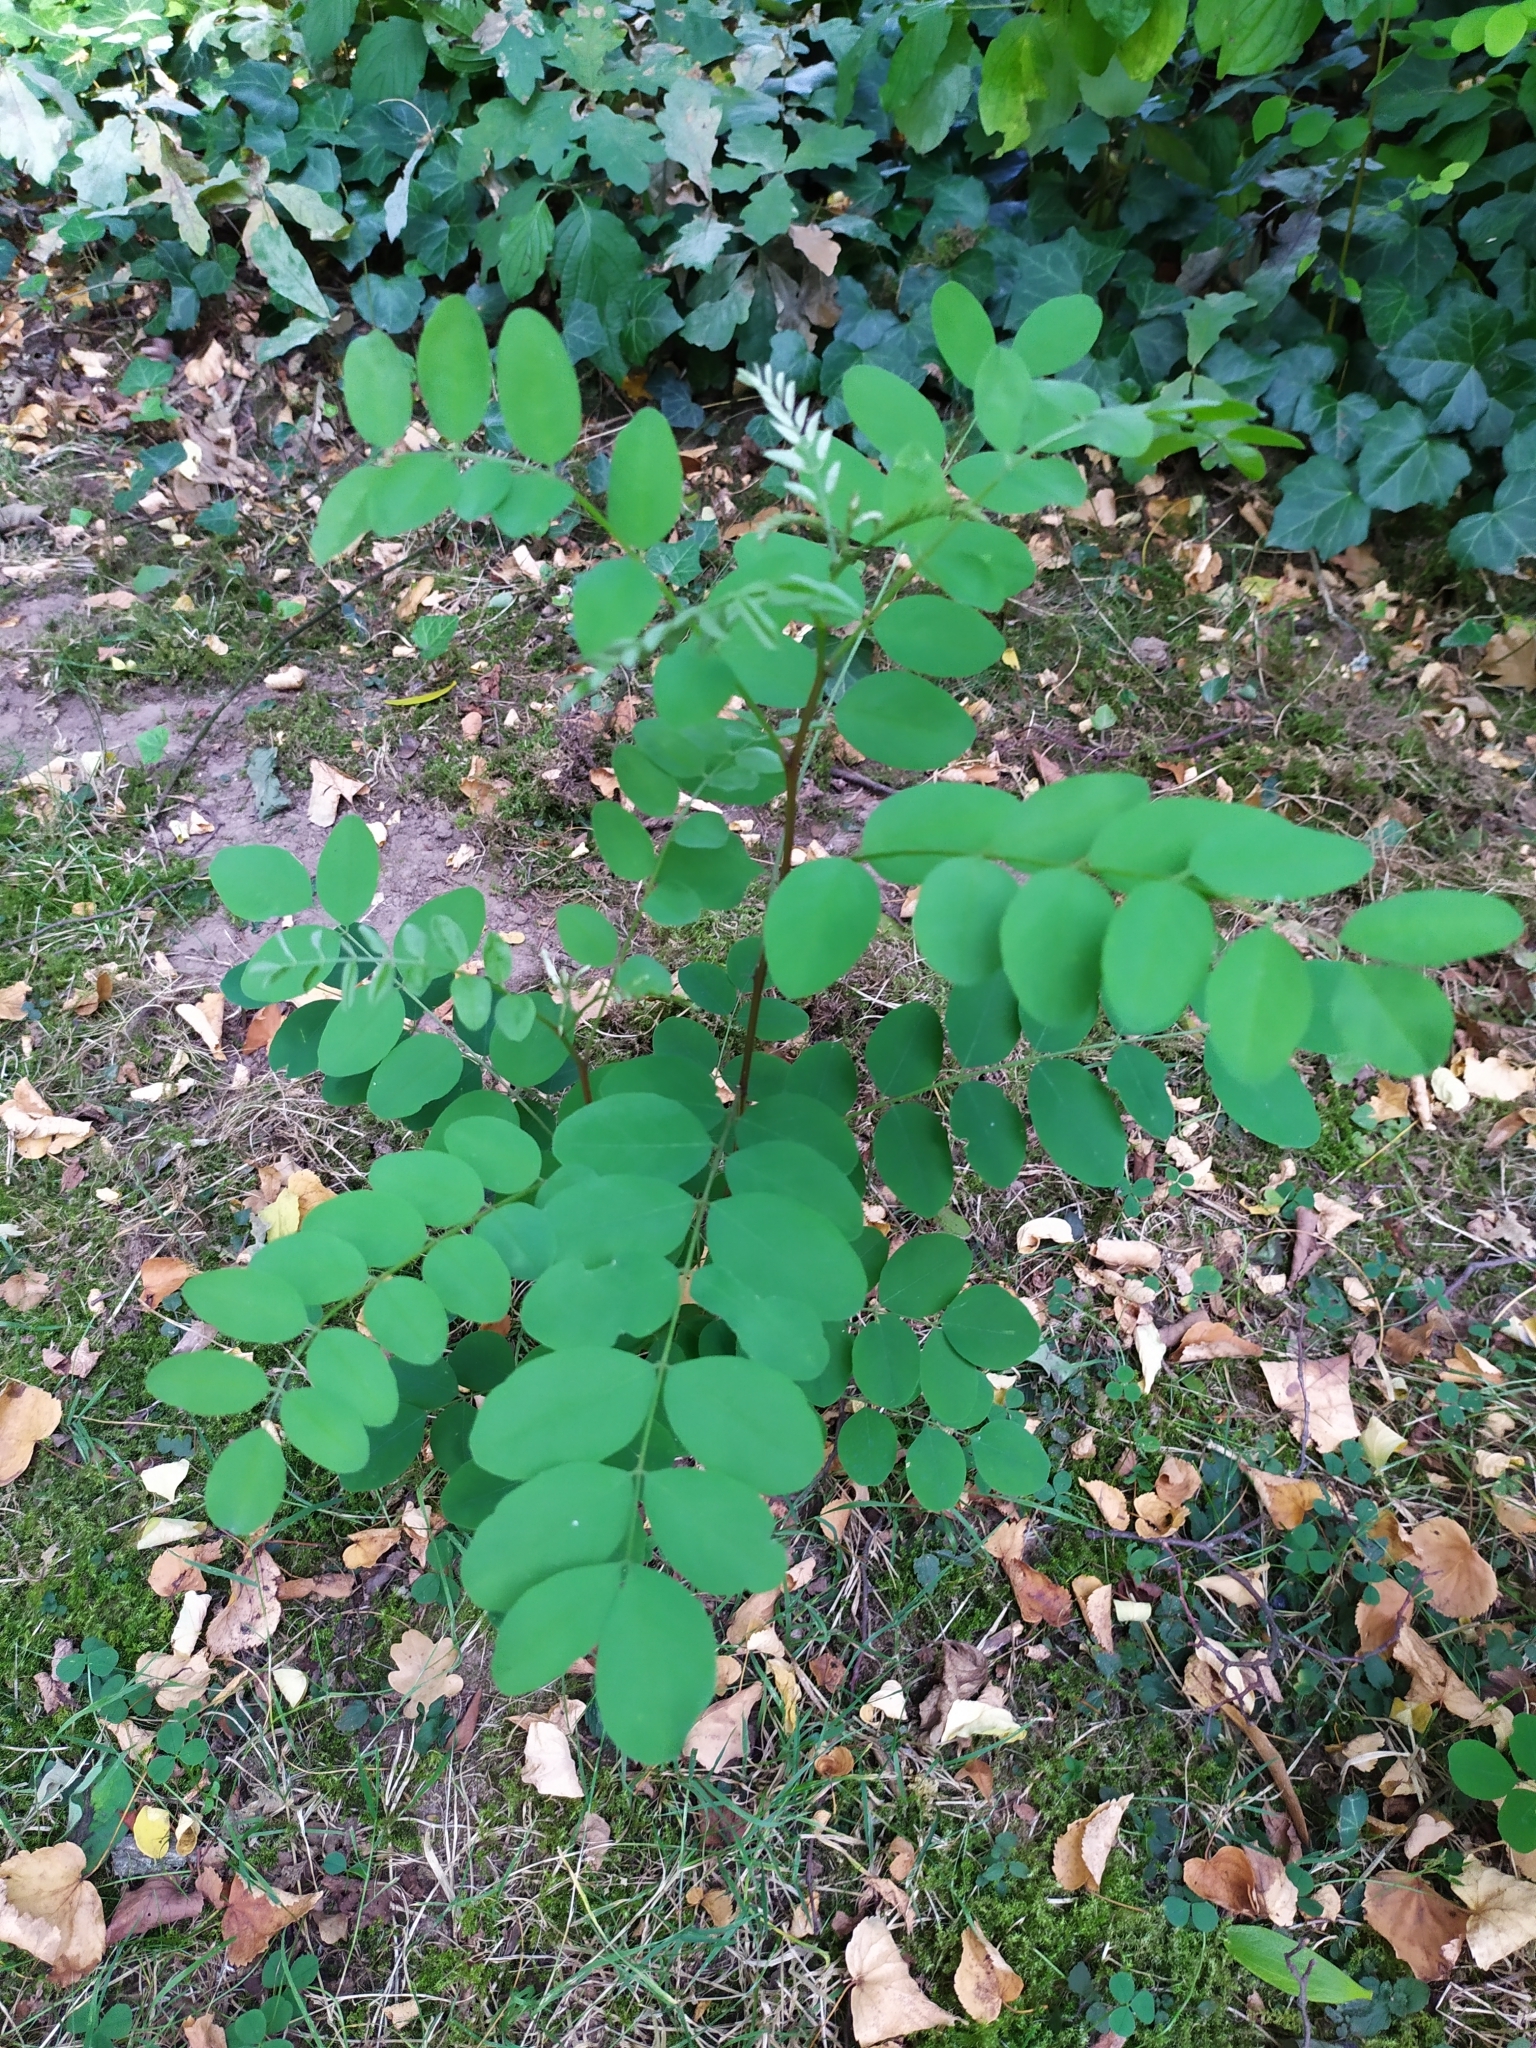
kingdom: Plantae
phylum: Tracheophyta
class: Magnoliopsida
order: Fabales
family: Fabaceae
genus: Robinia
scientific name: Robinia pseudoacacia
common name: Black locust
